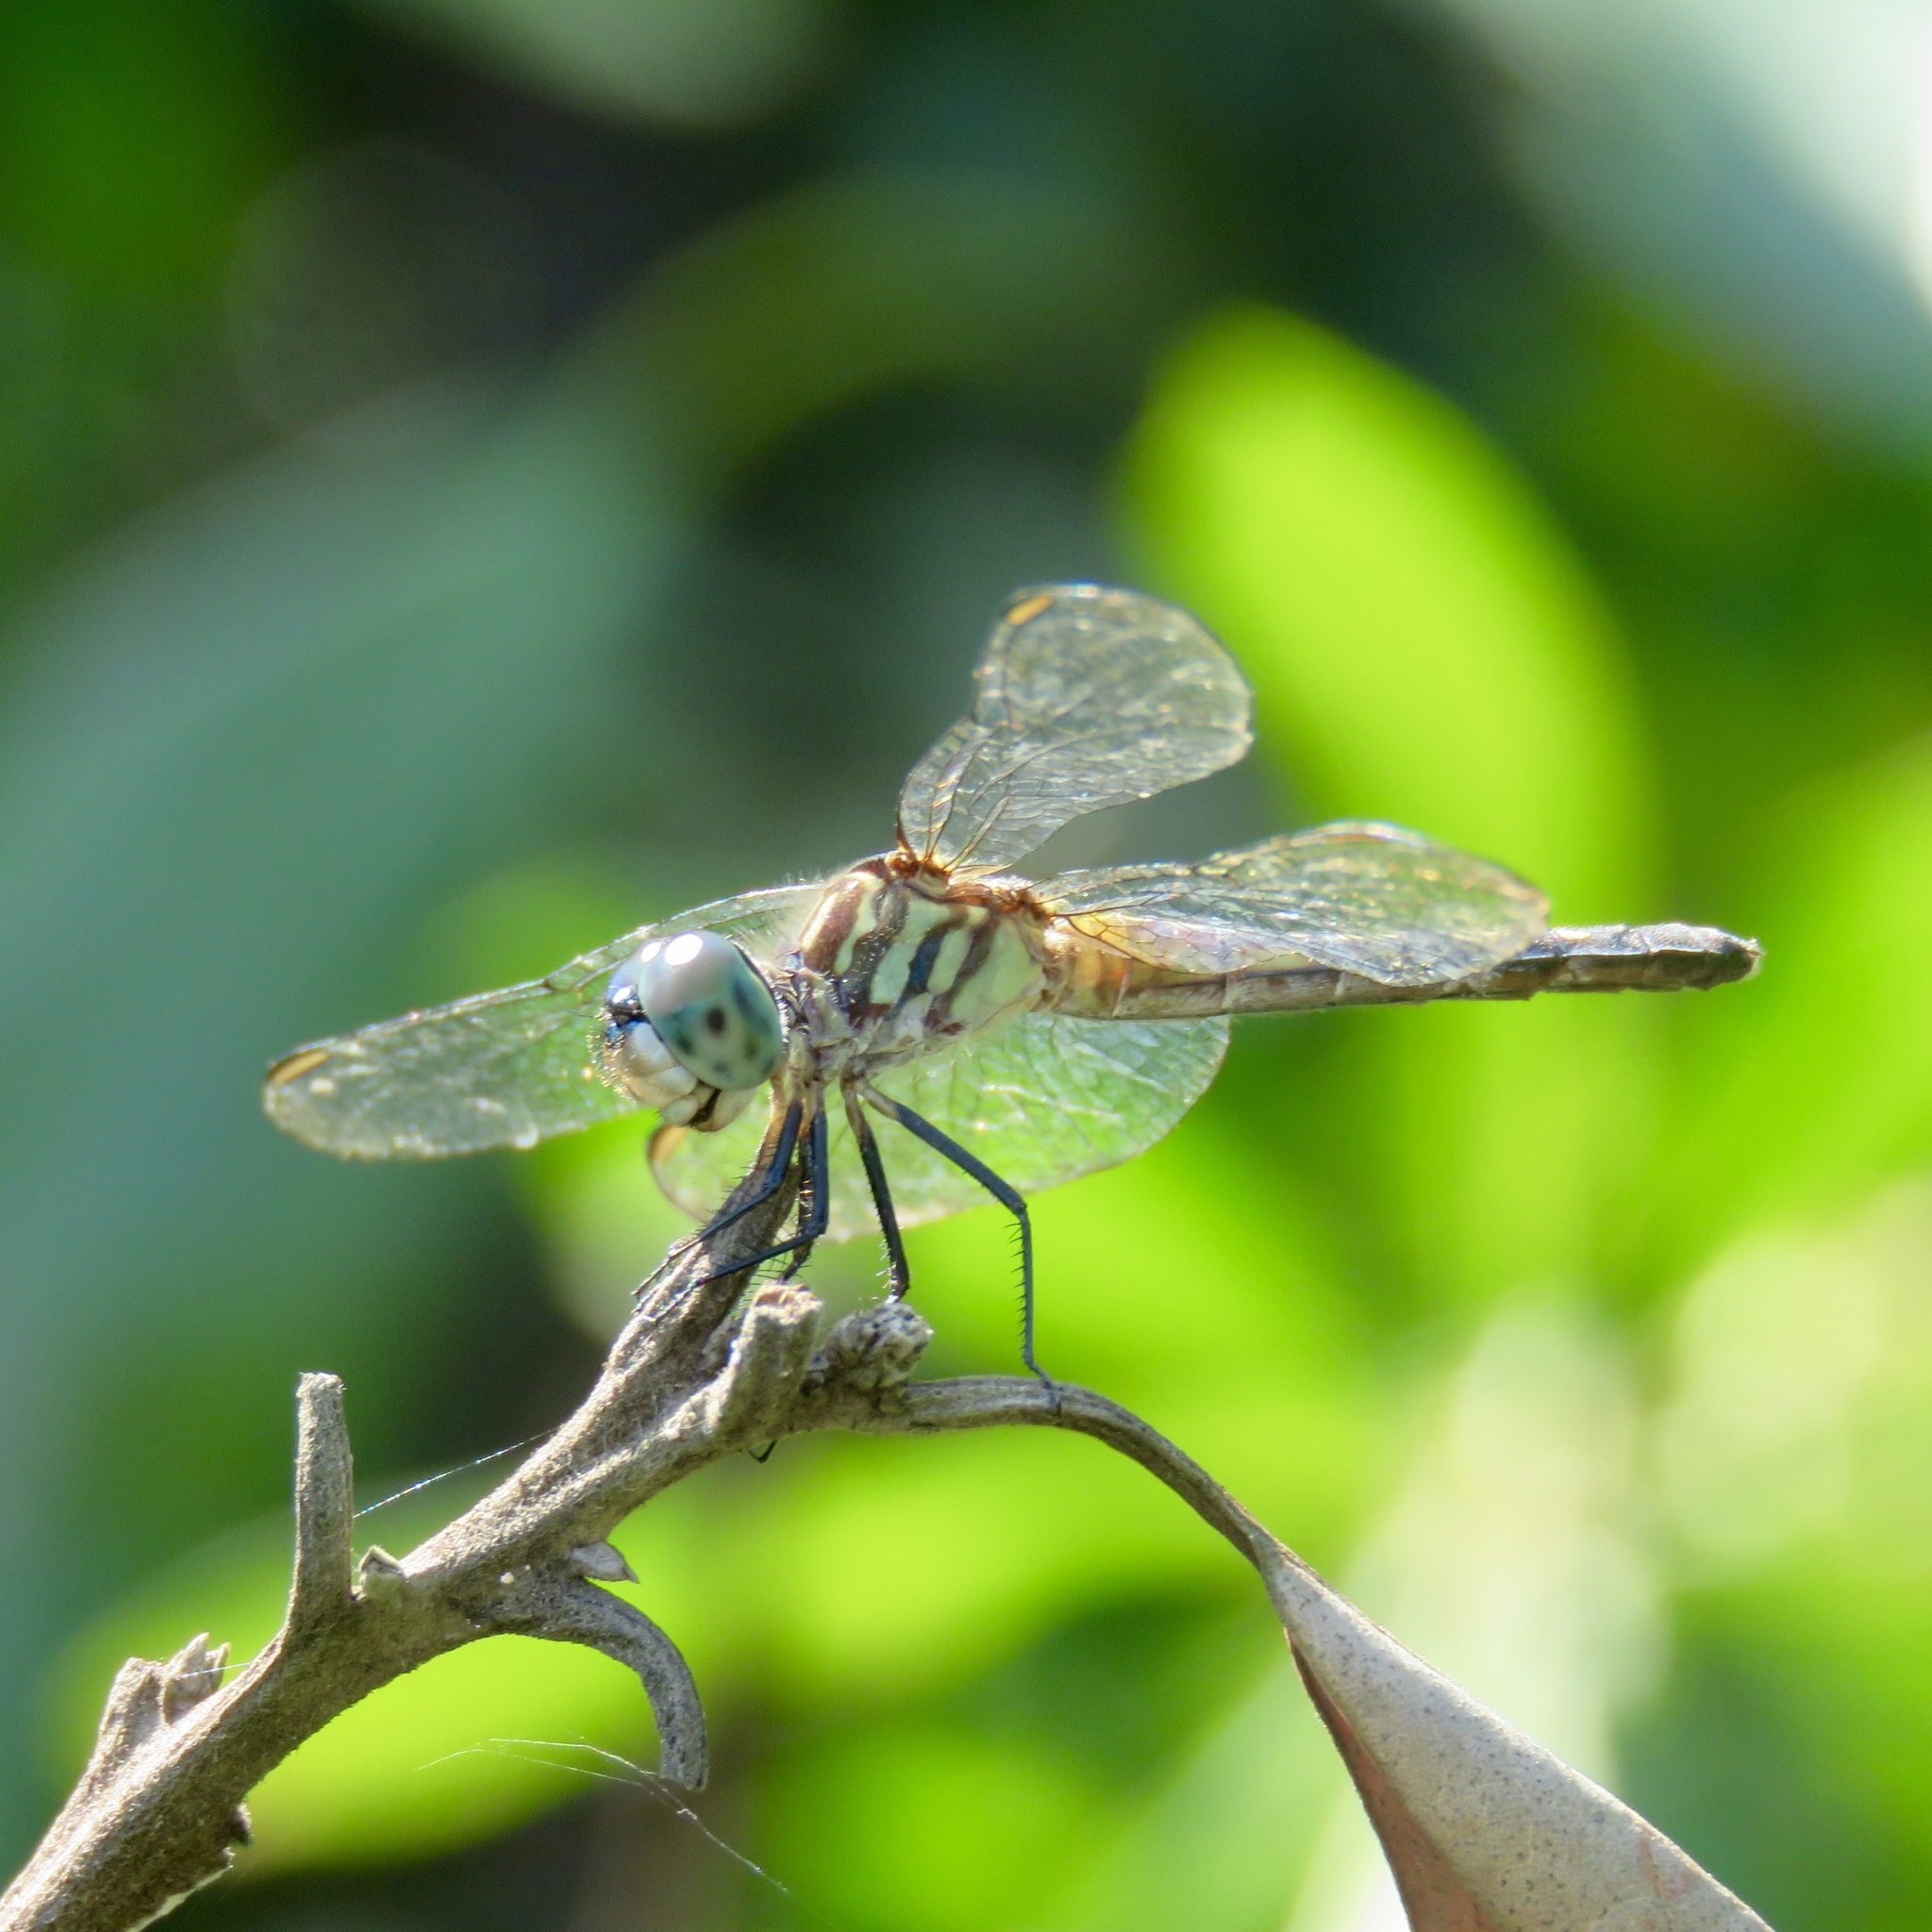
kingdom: Animalia
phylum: Arthropoda
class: Insecta
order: Odonata
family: Libellulidae
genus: Pachydiplax
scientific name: Pachydiplax longipennis
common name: Blue dasher
